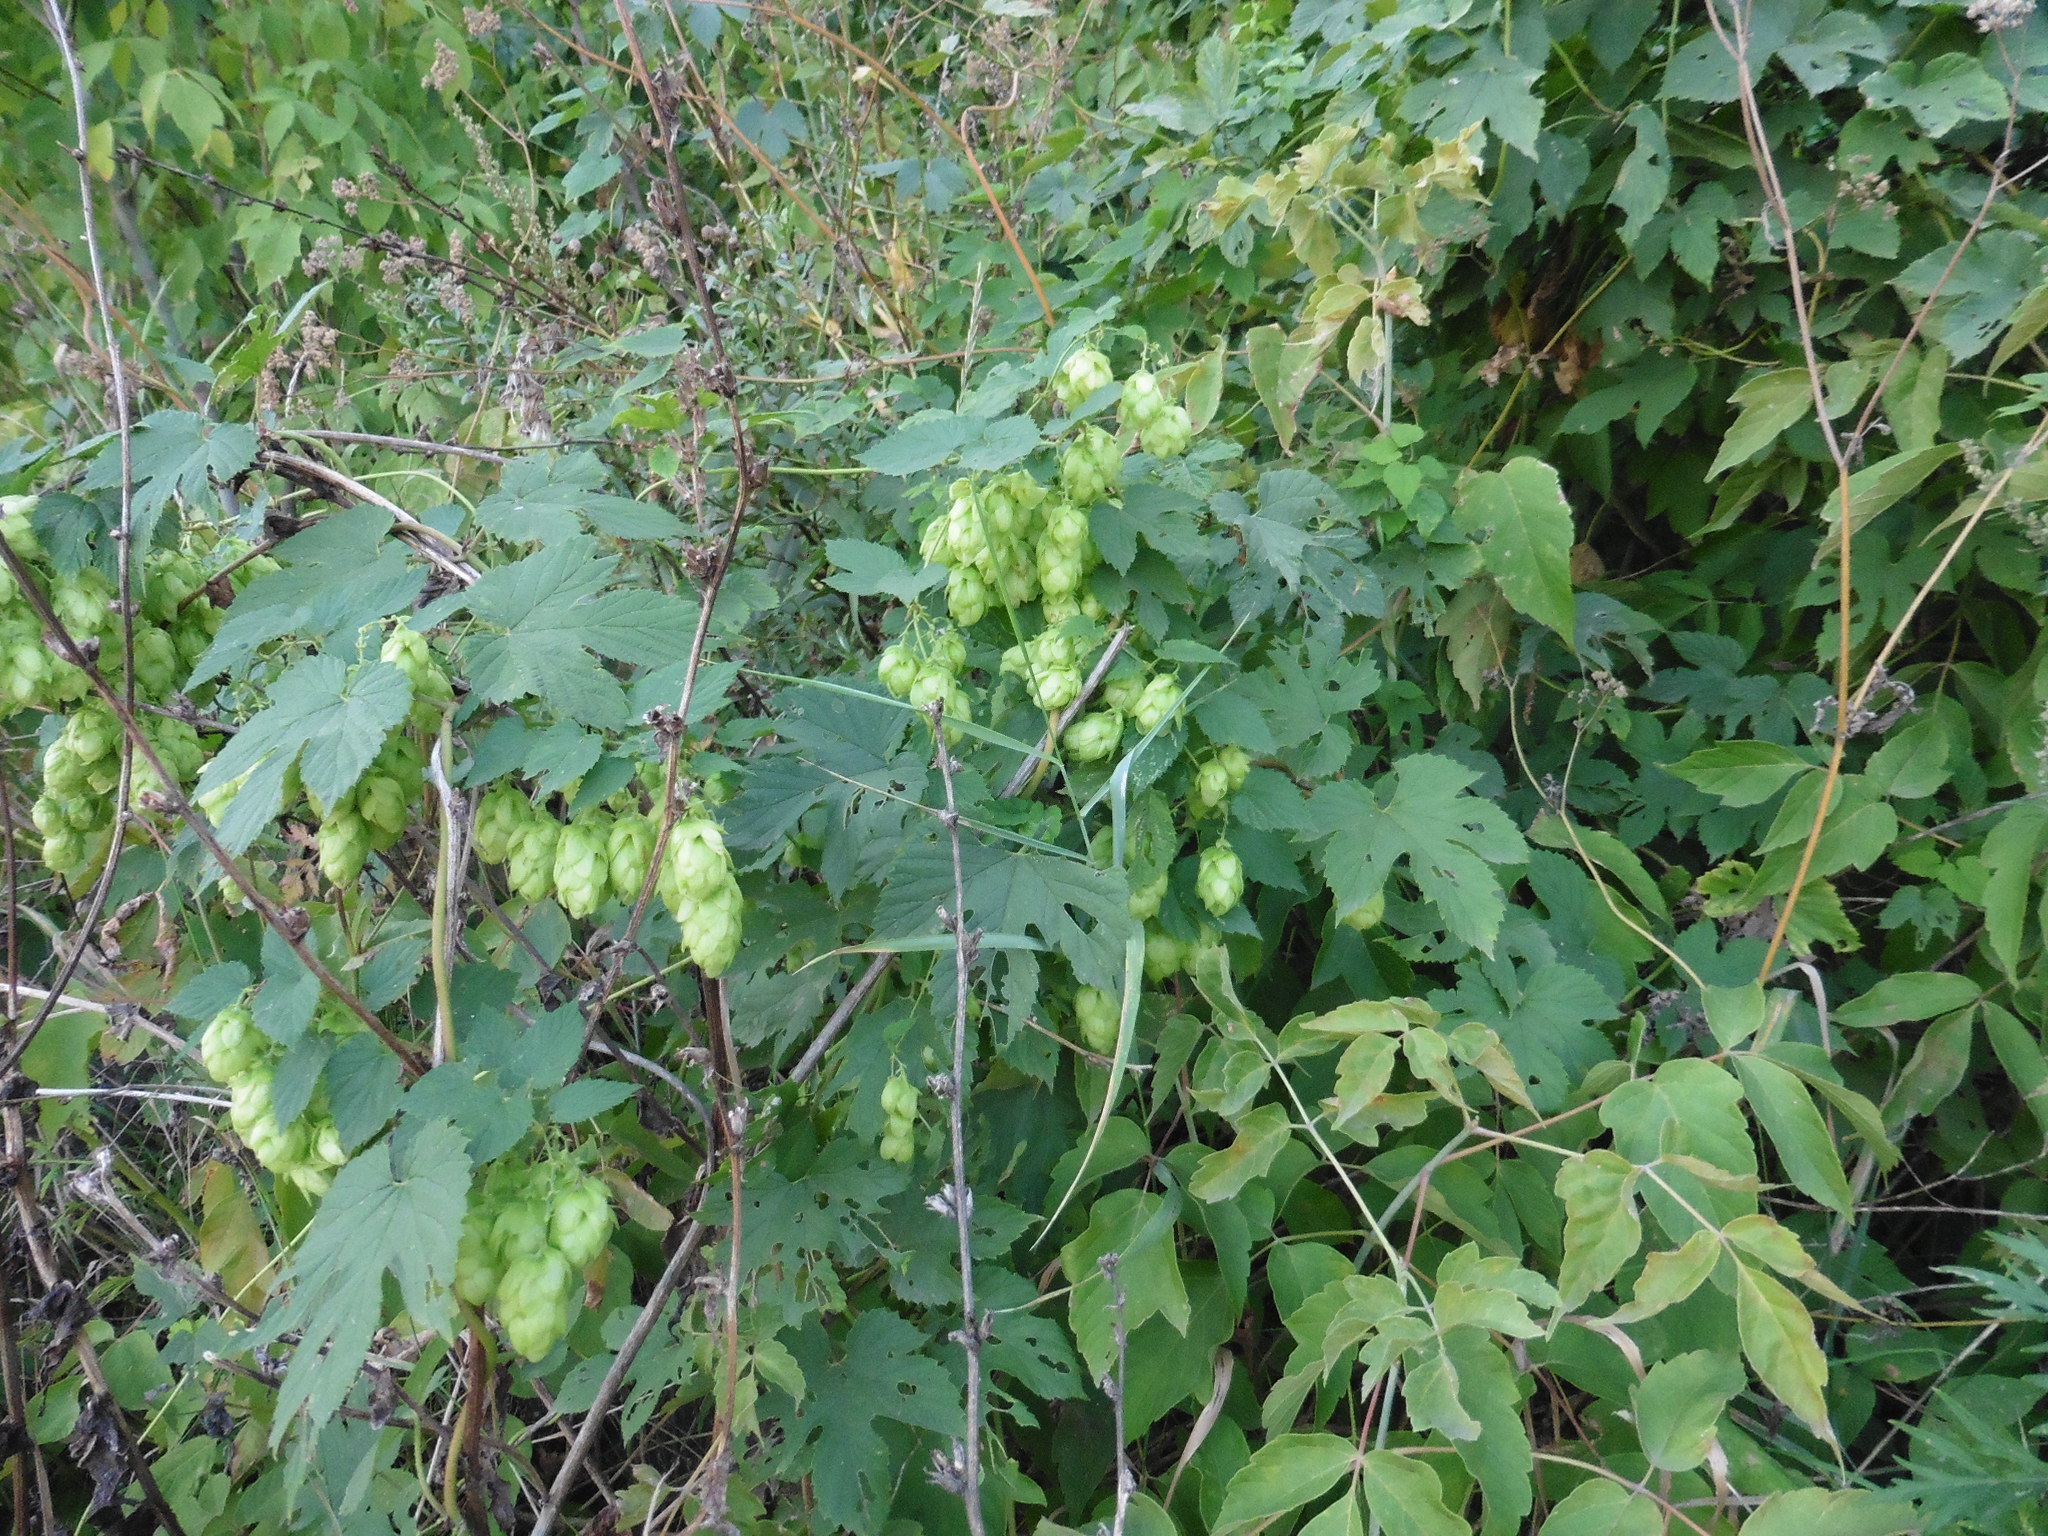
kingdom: Plantae
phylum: Tracheophyta
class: Magnoliopsida
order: Rosales
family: Cannabaceae
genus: Humulus
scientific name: Humulus lupulus
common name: Hop
